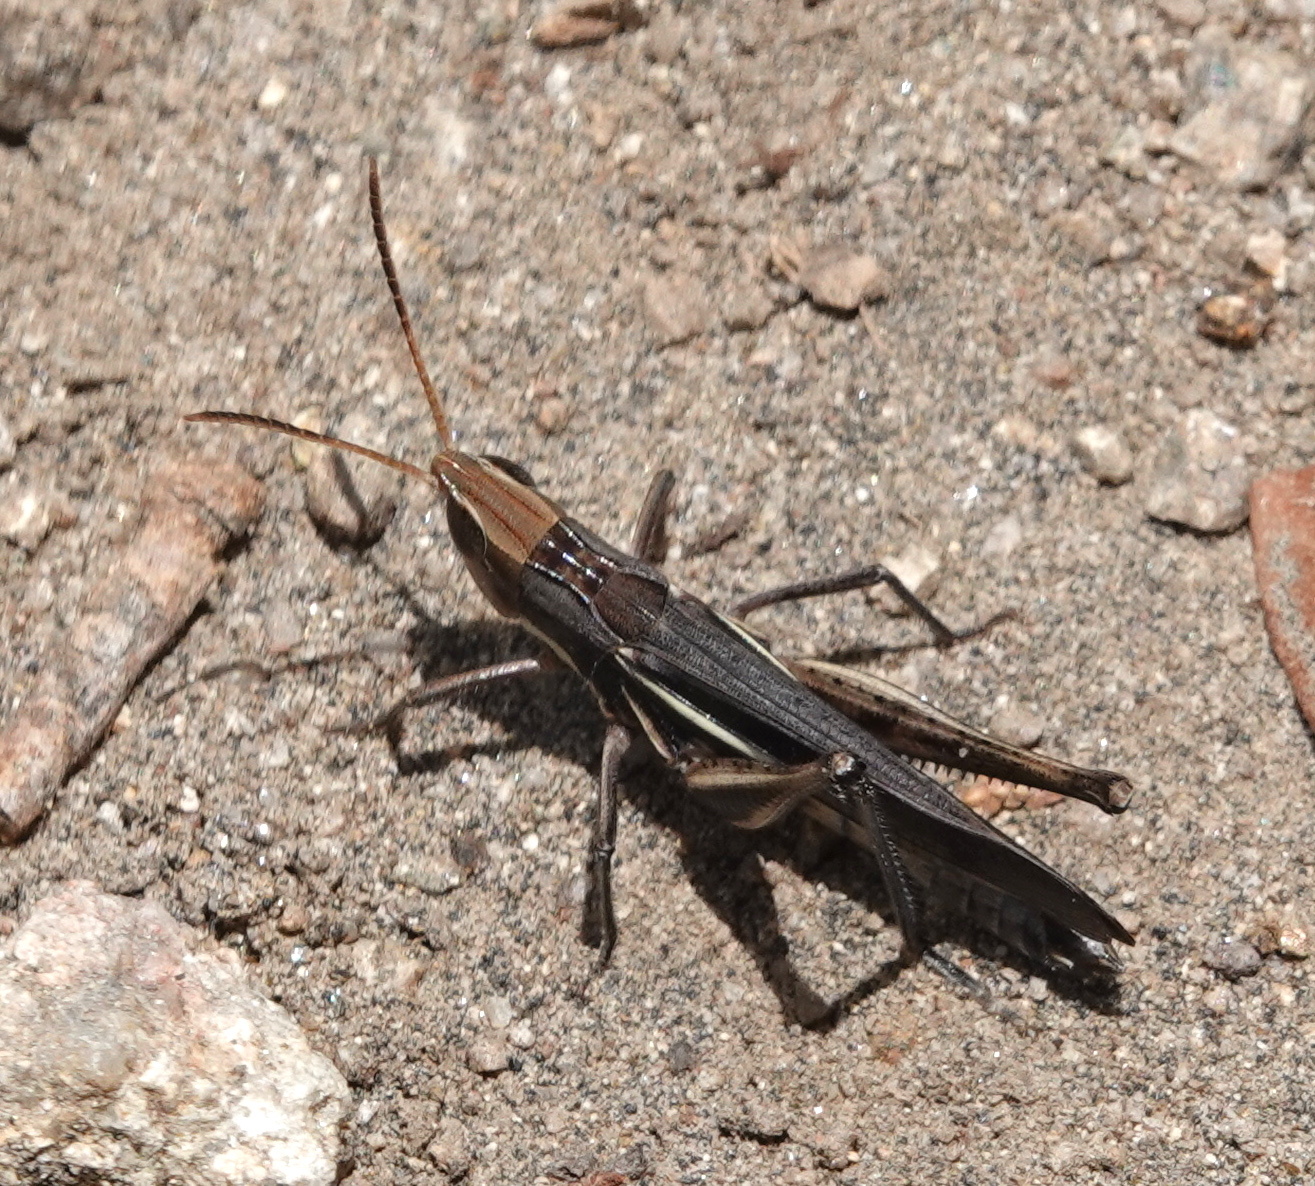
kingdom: Animalia
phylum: Arthropoda
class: Insecta
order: Orthoptera
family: Acrididae
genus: Syrbula
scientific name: Syrbula montezuma
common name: Montezuma's grasshopper
